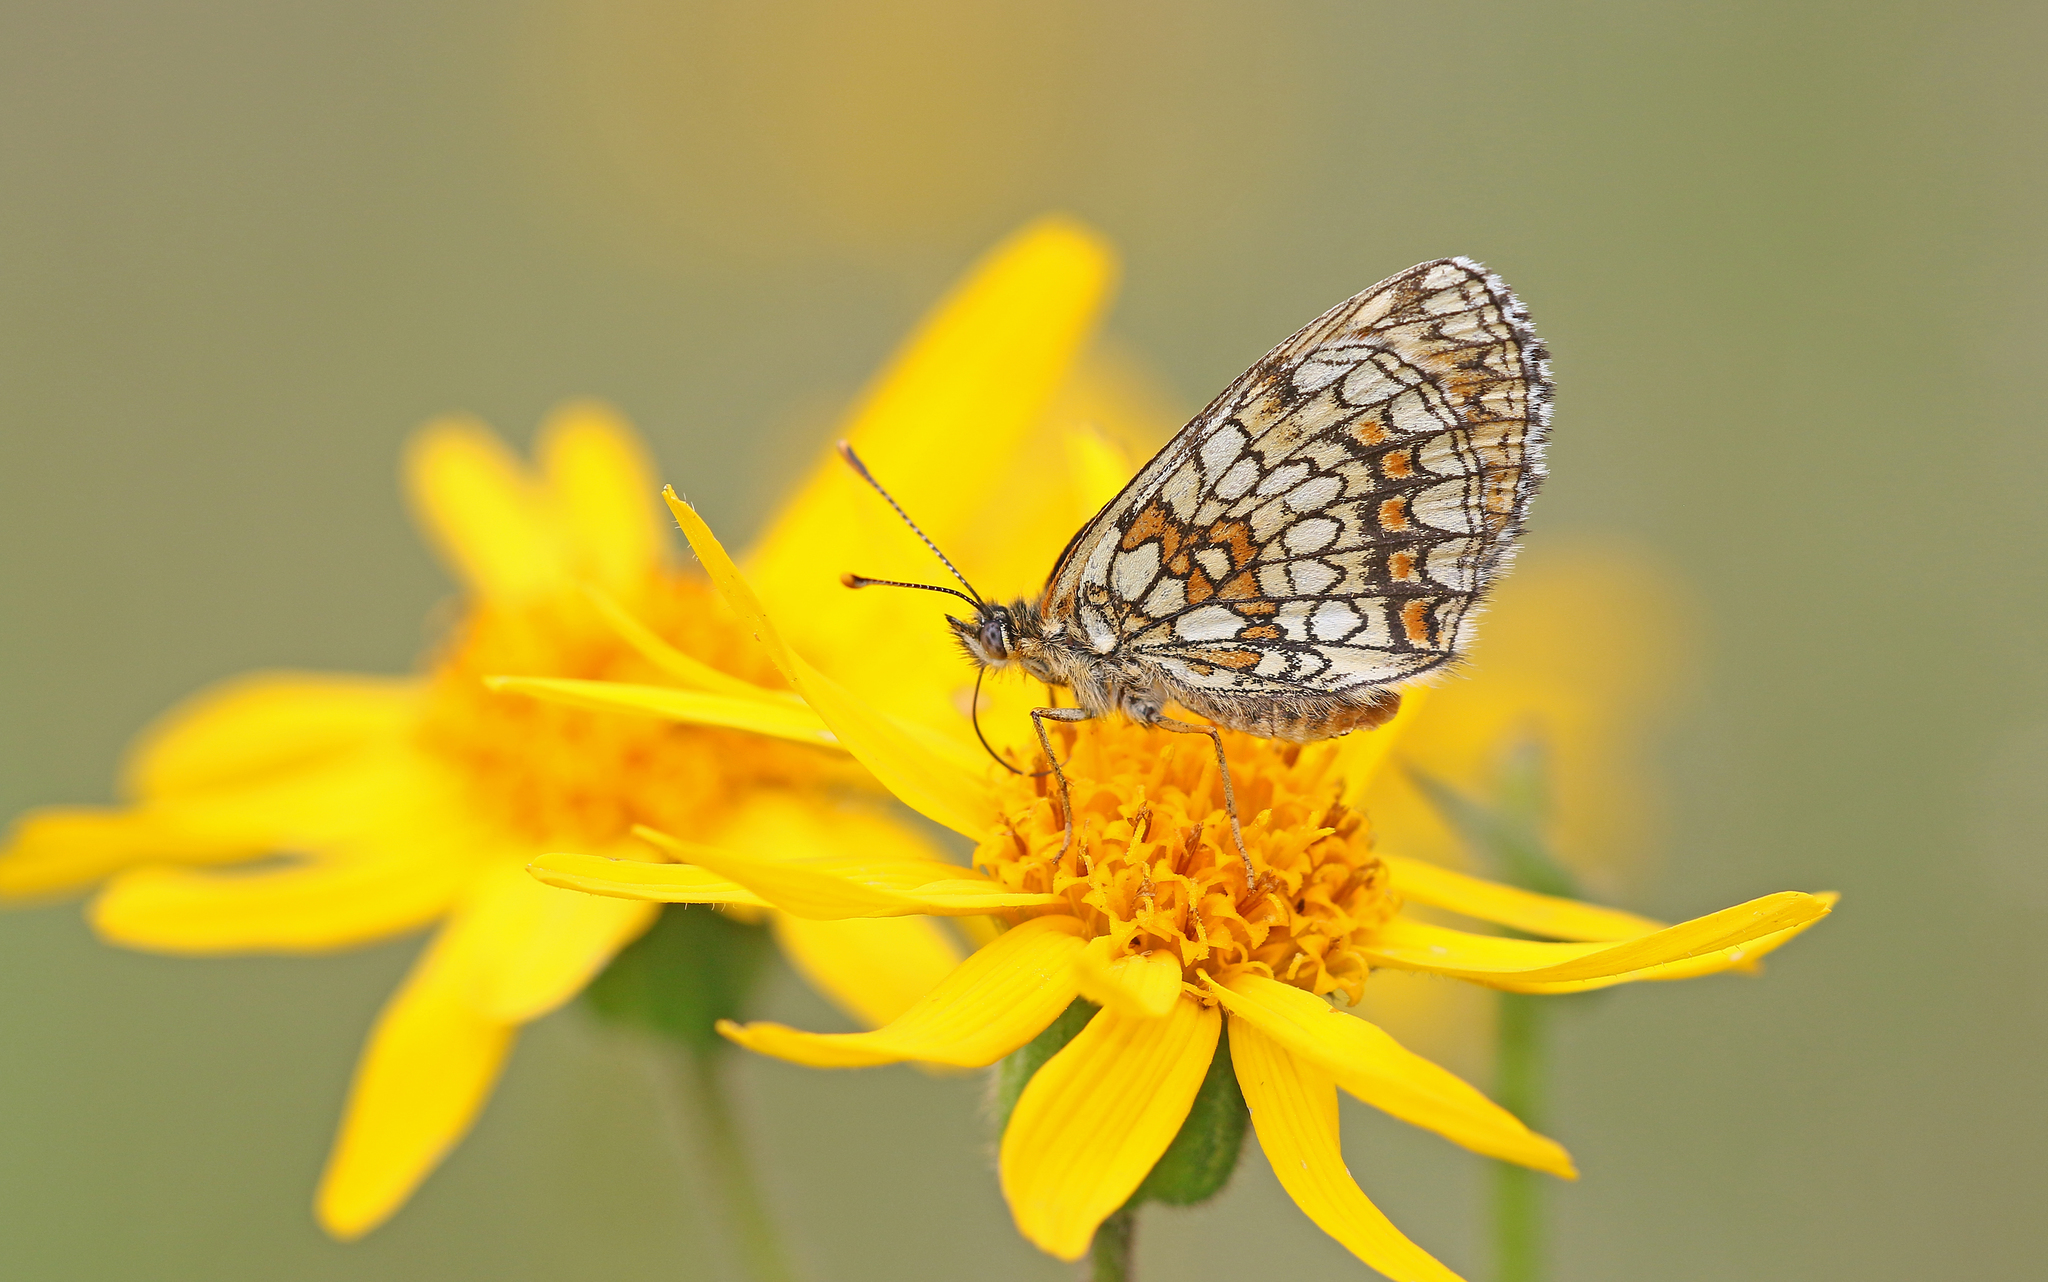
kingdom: Animalia
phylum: Arthropoda
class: Insecta
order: Lepidoptera
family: Nymphalidae
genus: Melitaea
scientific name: Melitaea athalia
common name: Heath fritillary
